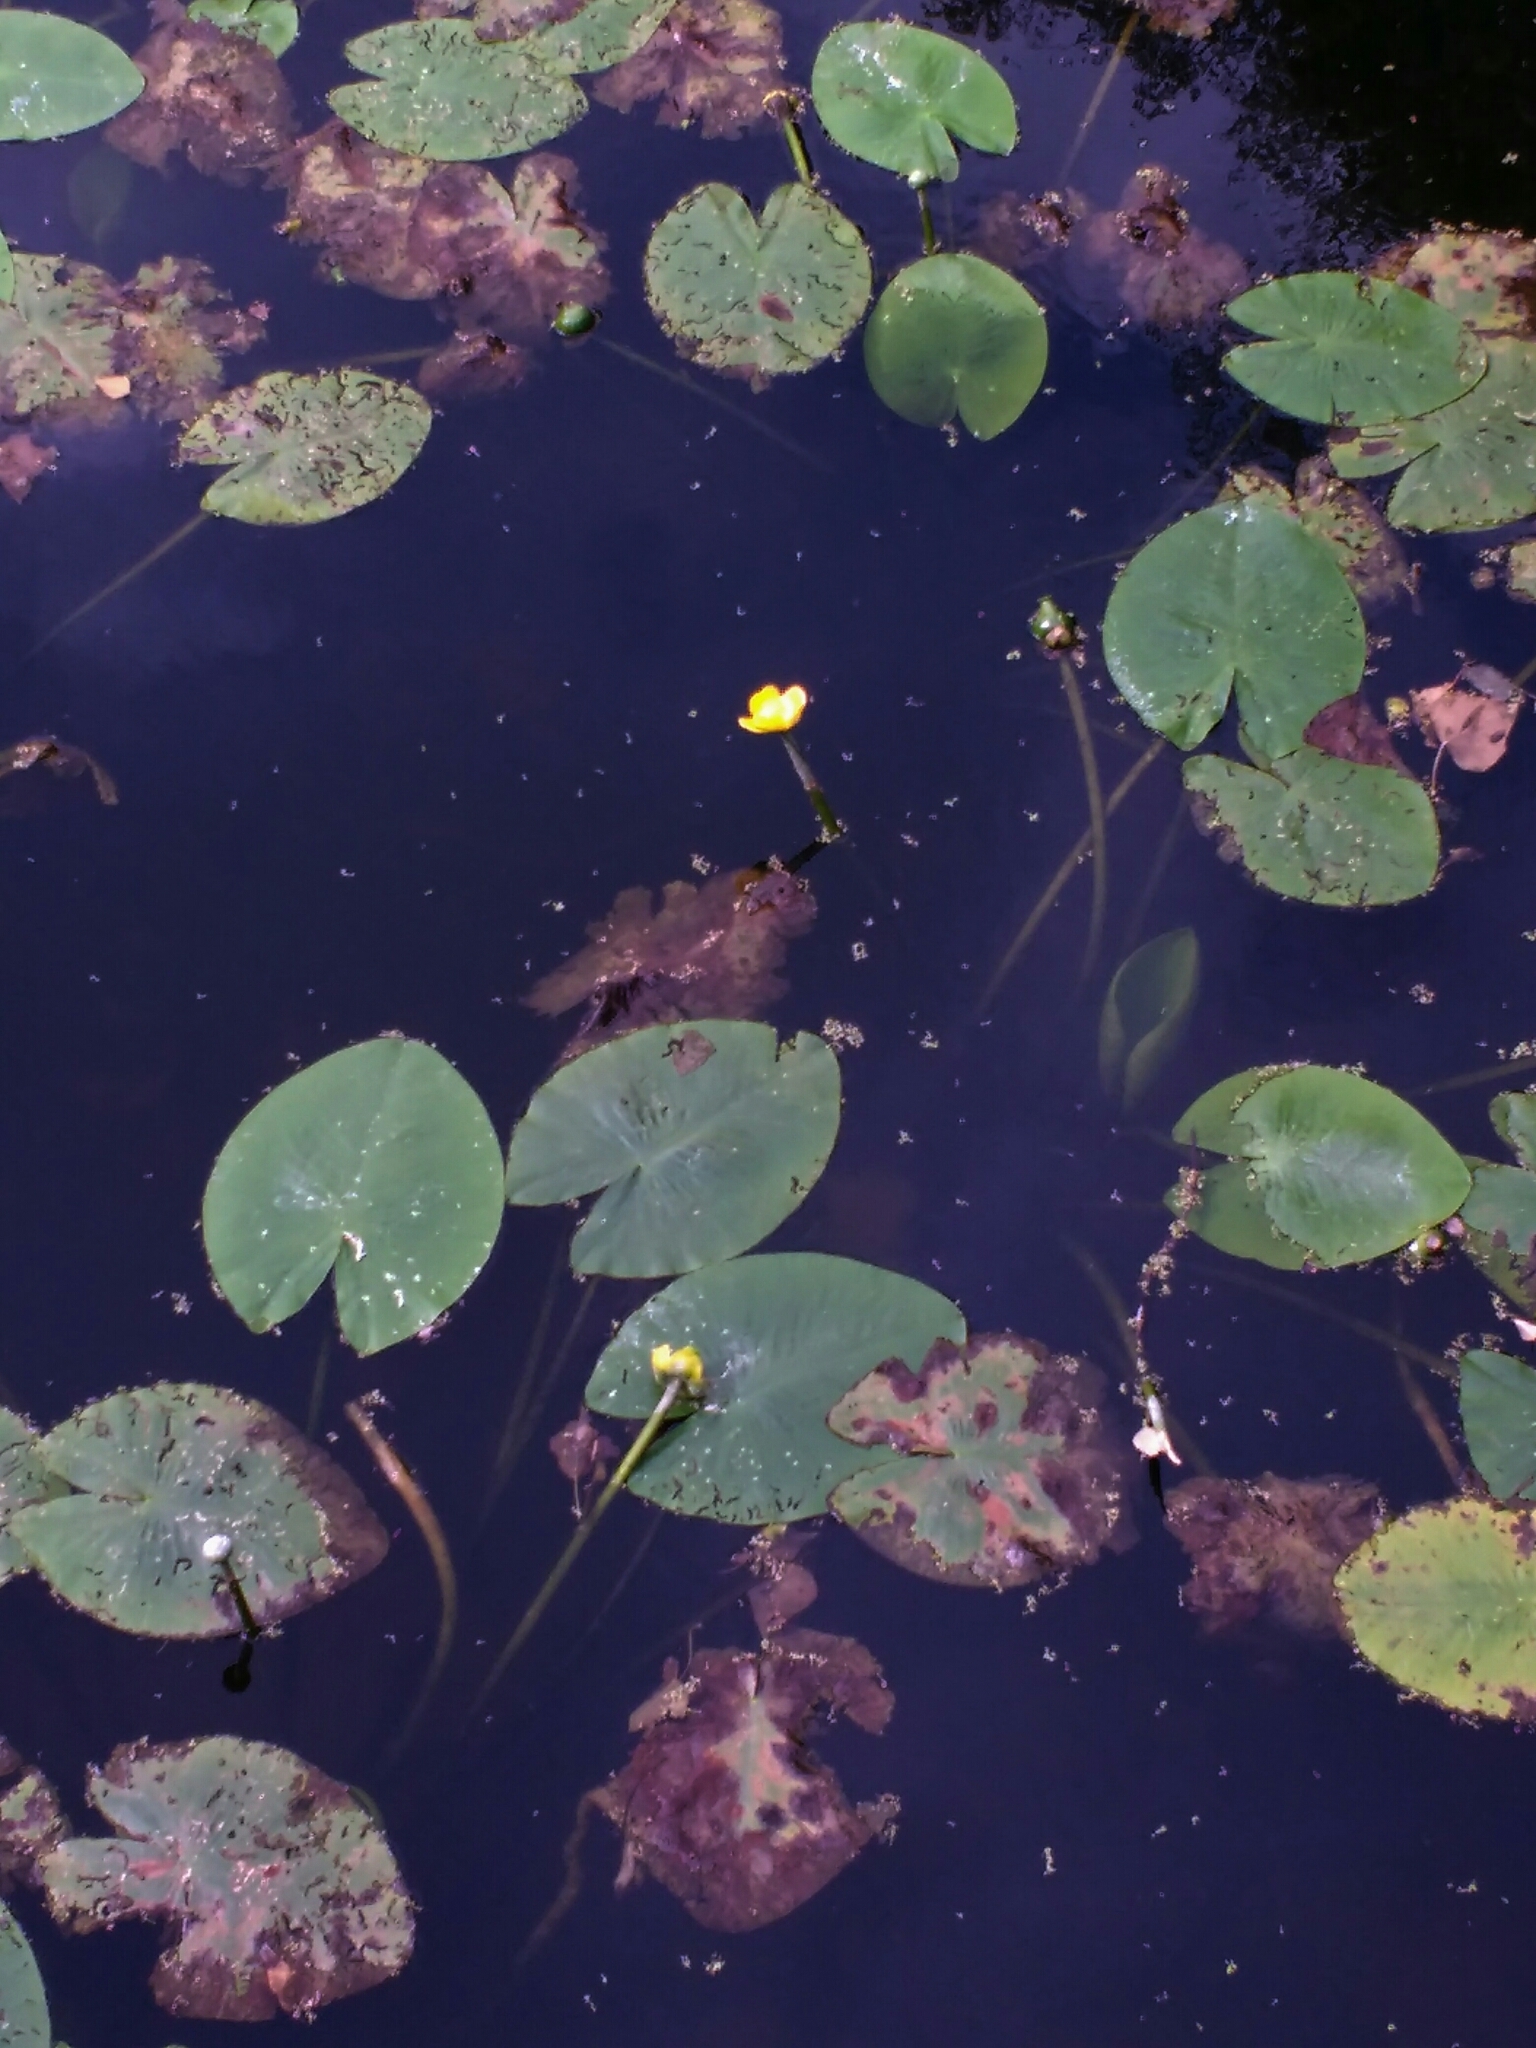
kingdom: Plantae
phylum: Tracheophyta
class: Magnoliopsida
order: Nymphaeales
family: Nymphaeaceae
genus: Nuphar
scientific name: Nuphar lutea
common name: Yellow water-lily
